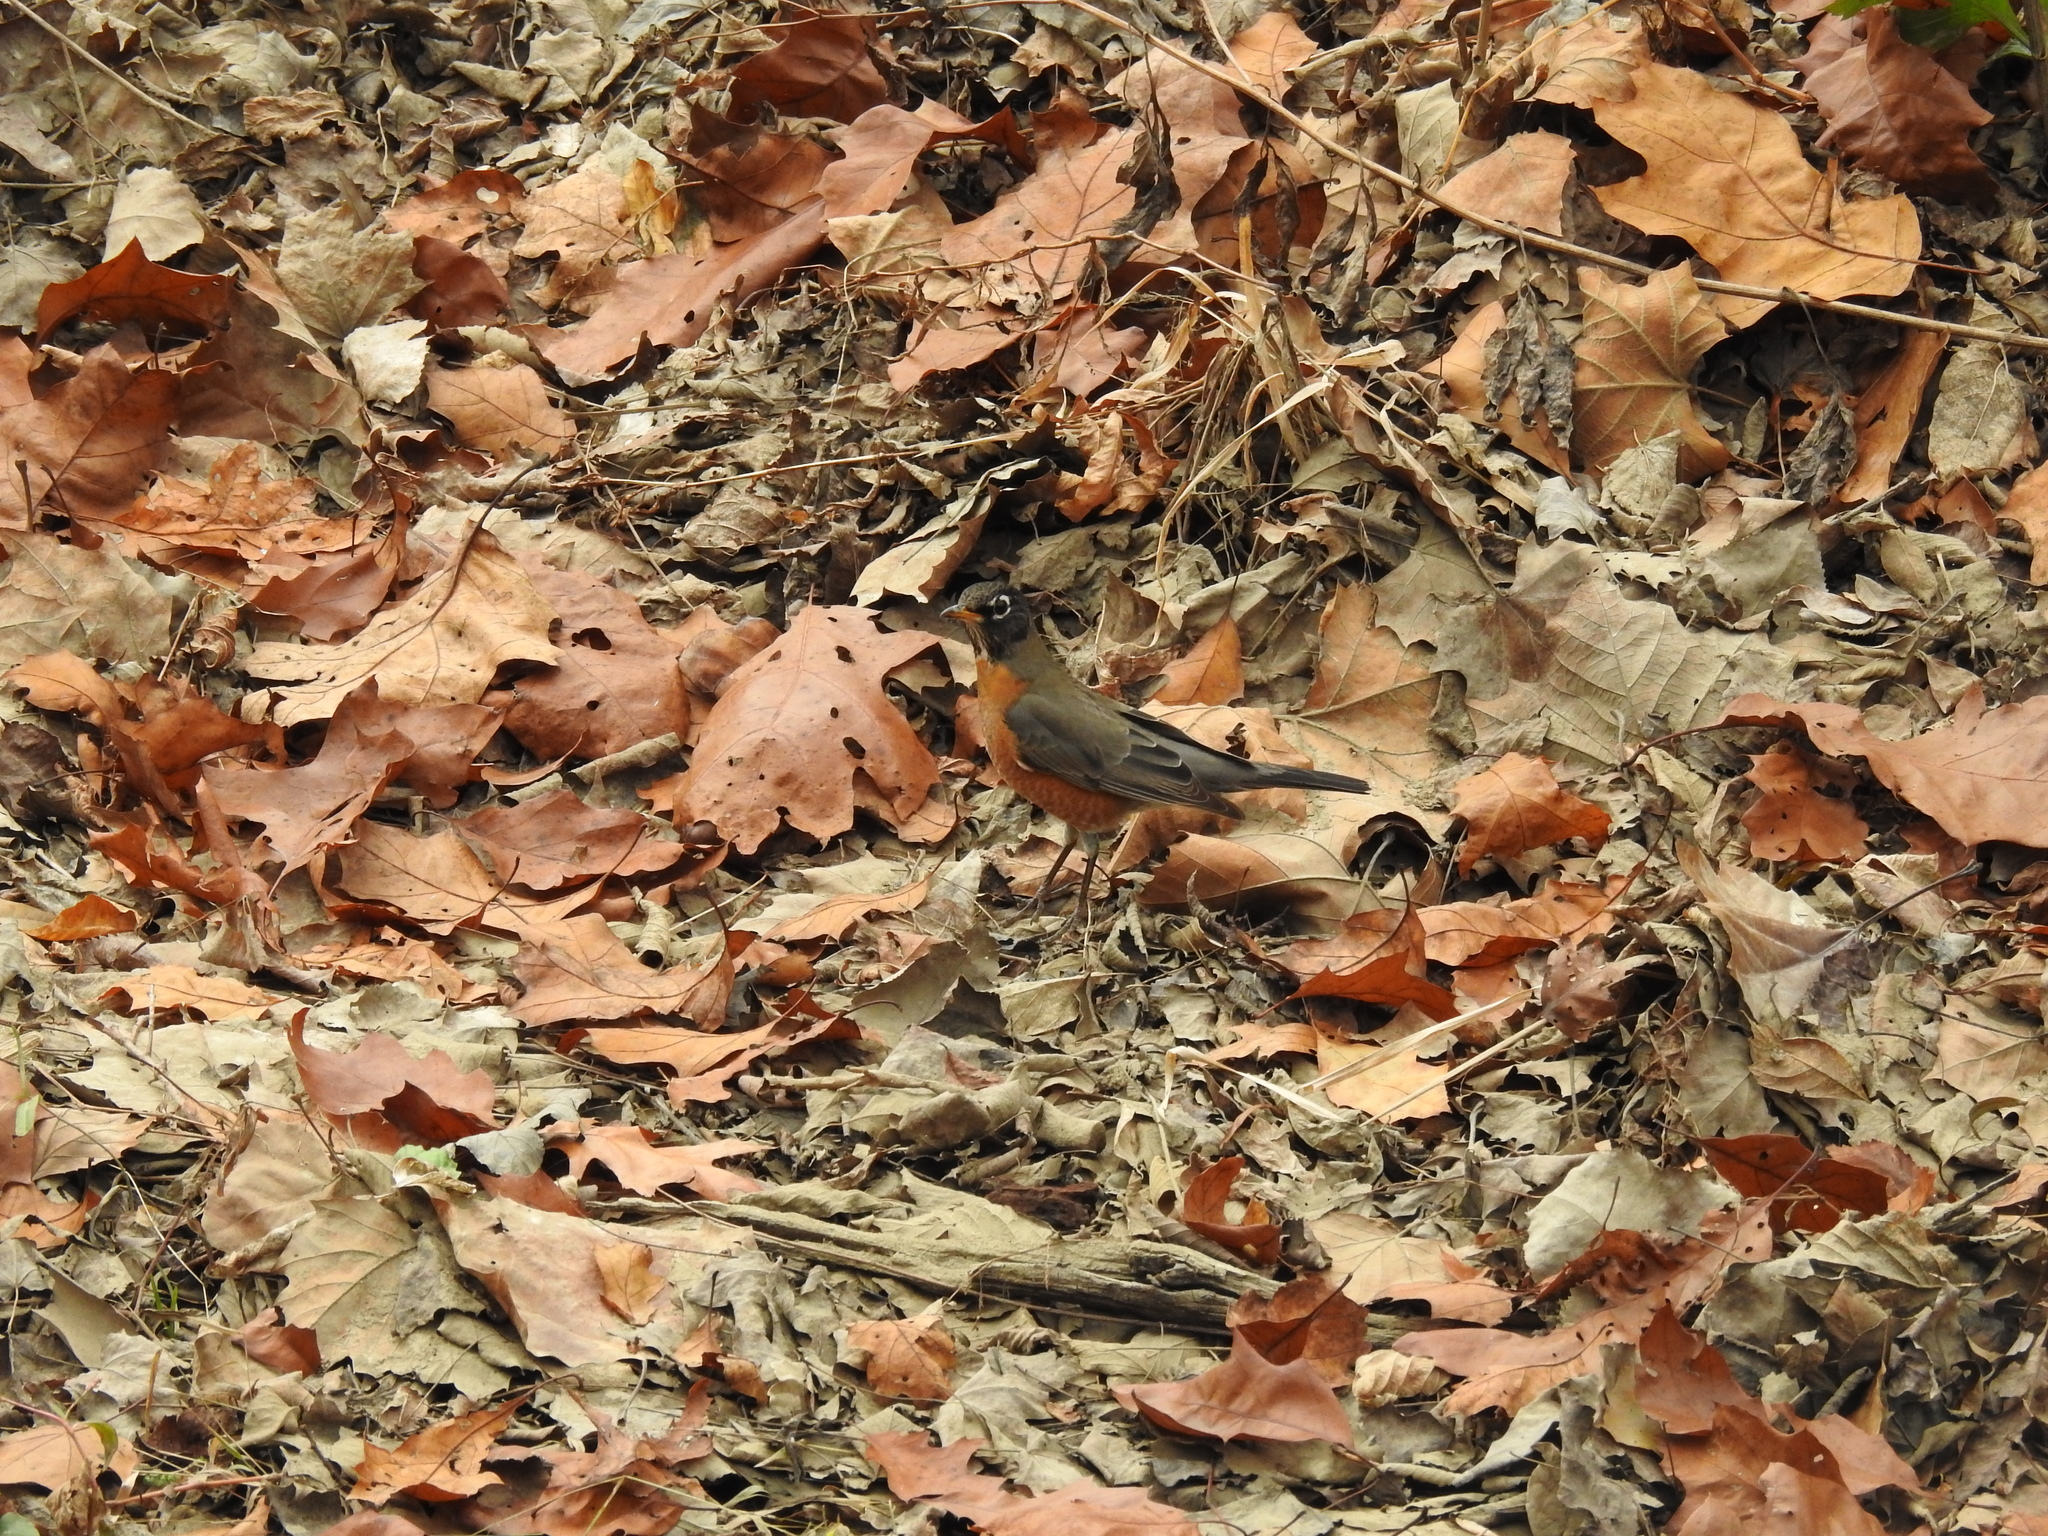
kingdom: Animalia
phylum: Chordata
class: Aves
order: Passeriformes
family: Turdidae
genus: Turdus
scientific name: Turdus migratorius
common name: American robin
